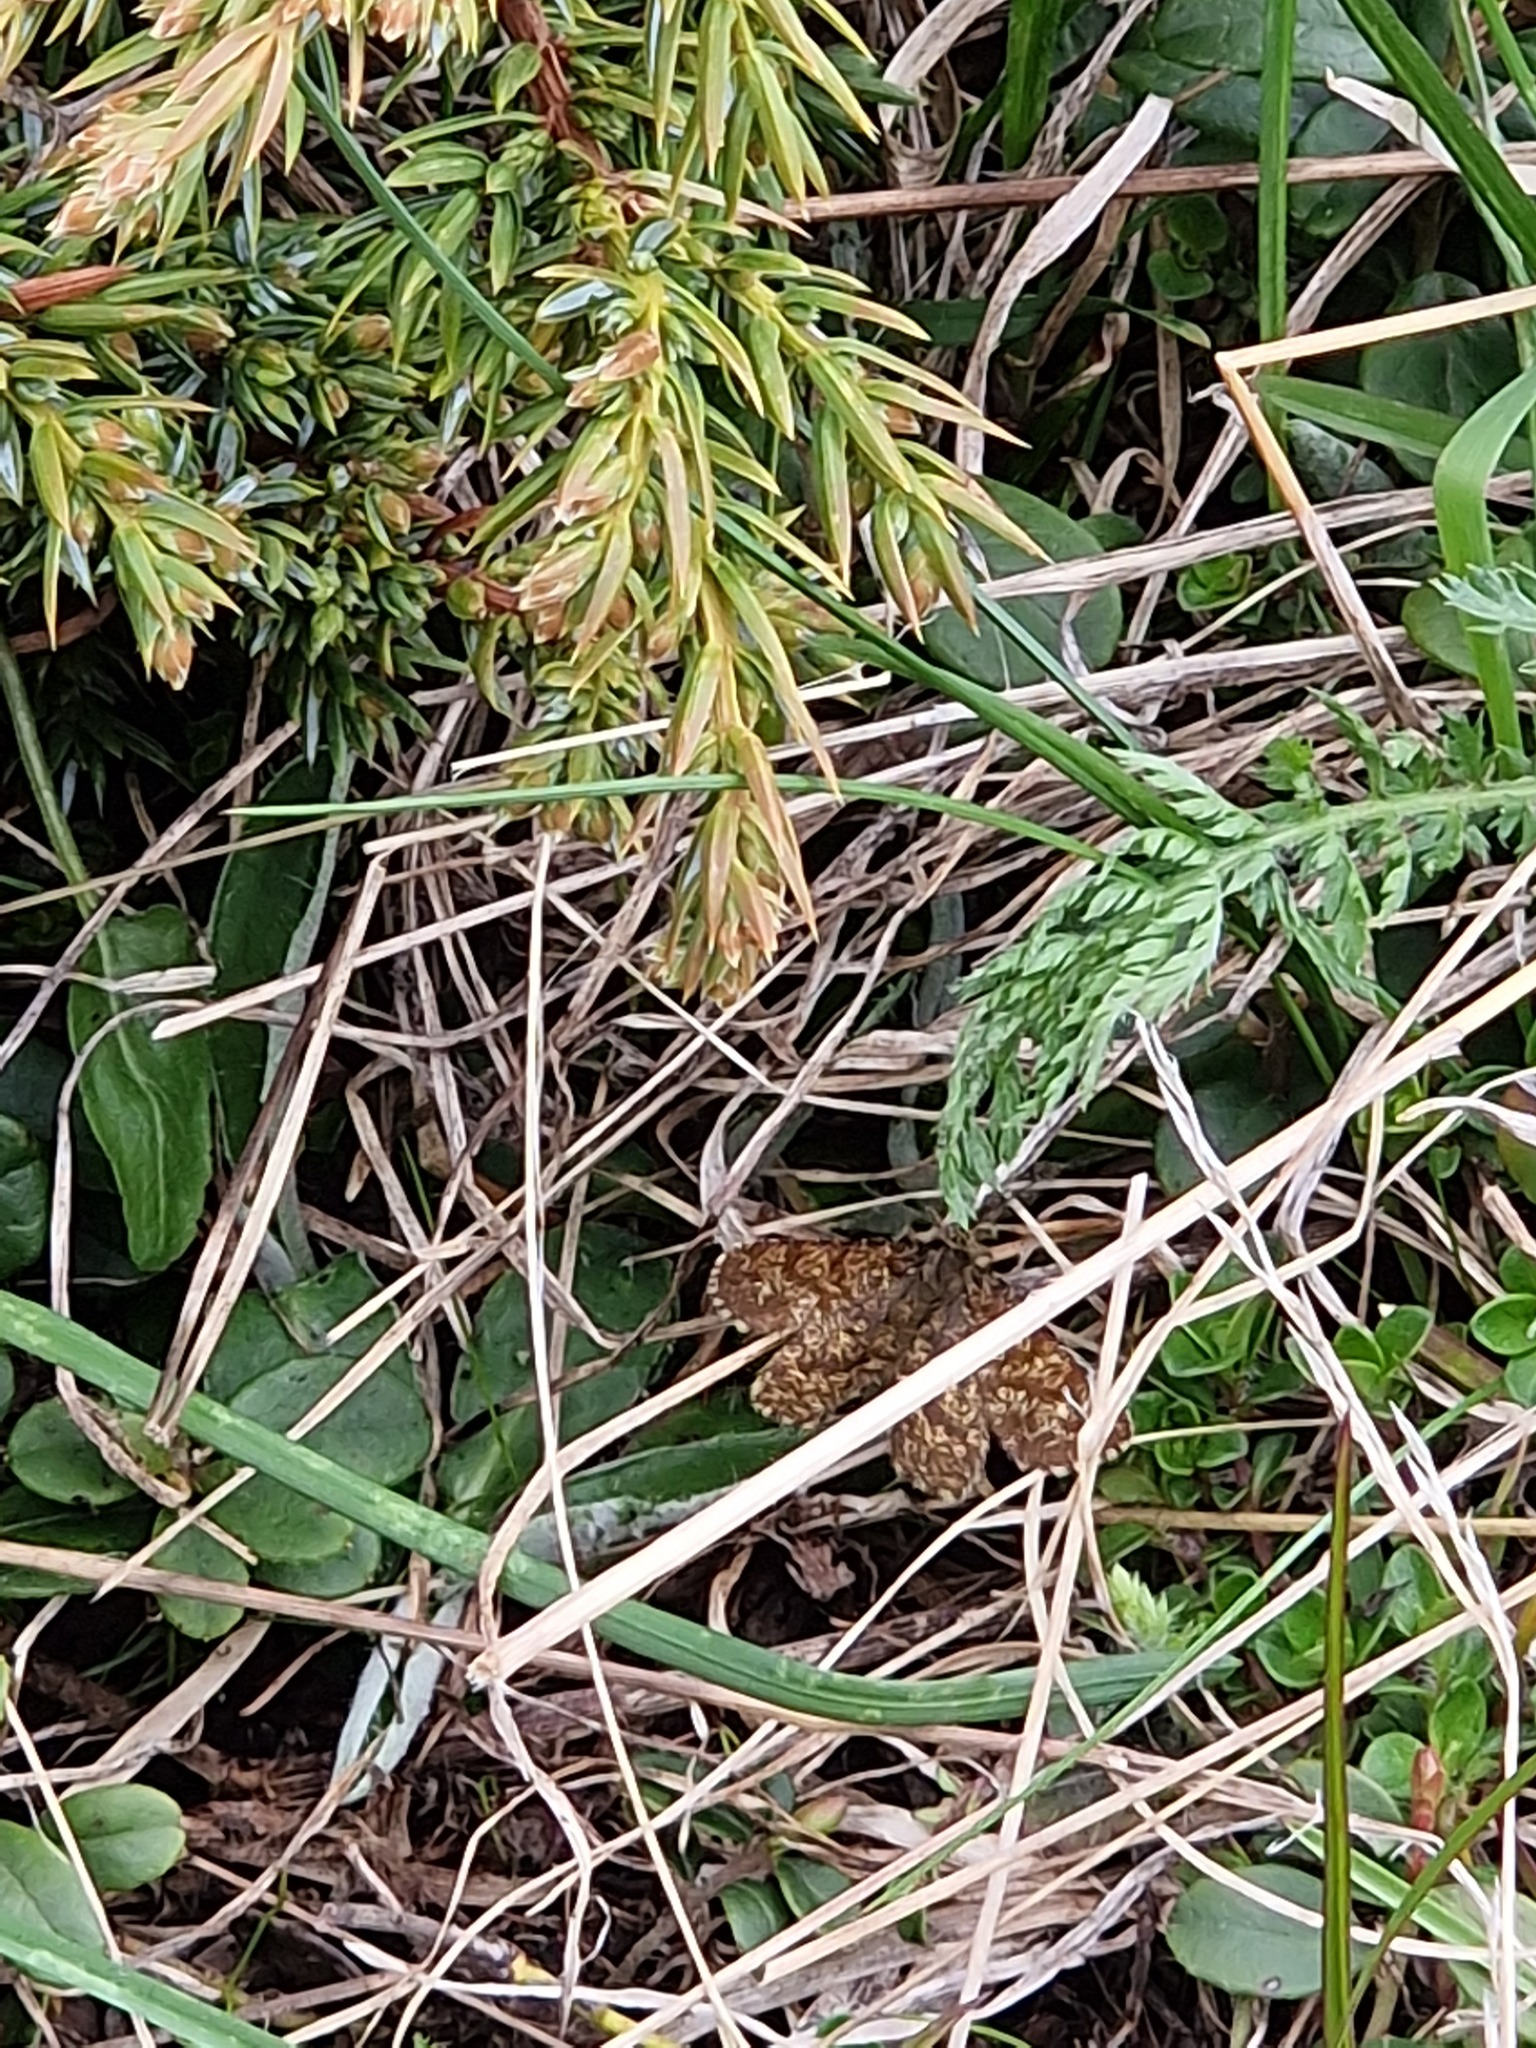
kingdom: Animalia
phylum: Arthropoda
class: Insecta
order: Lepidoptera
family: Geometridae
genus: Ematurga
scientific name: Ematurga atomaria
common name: Common heath
